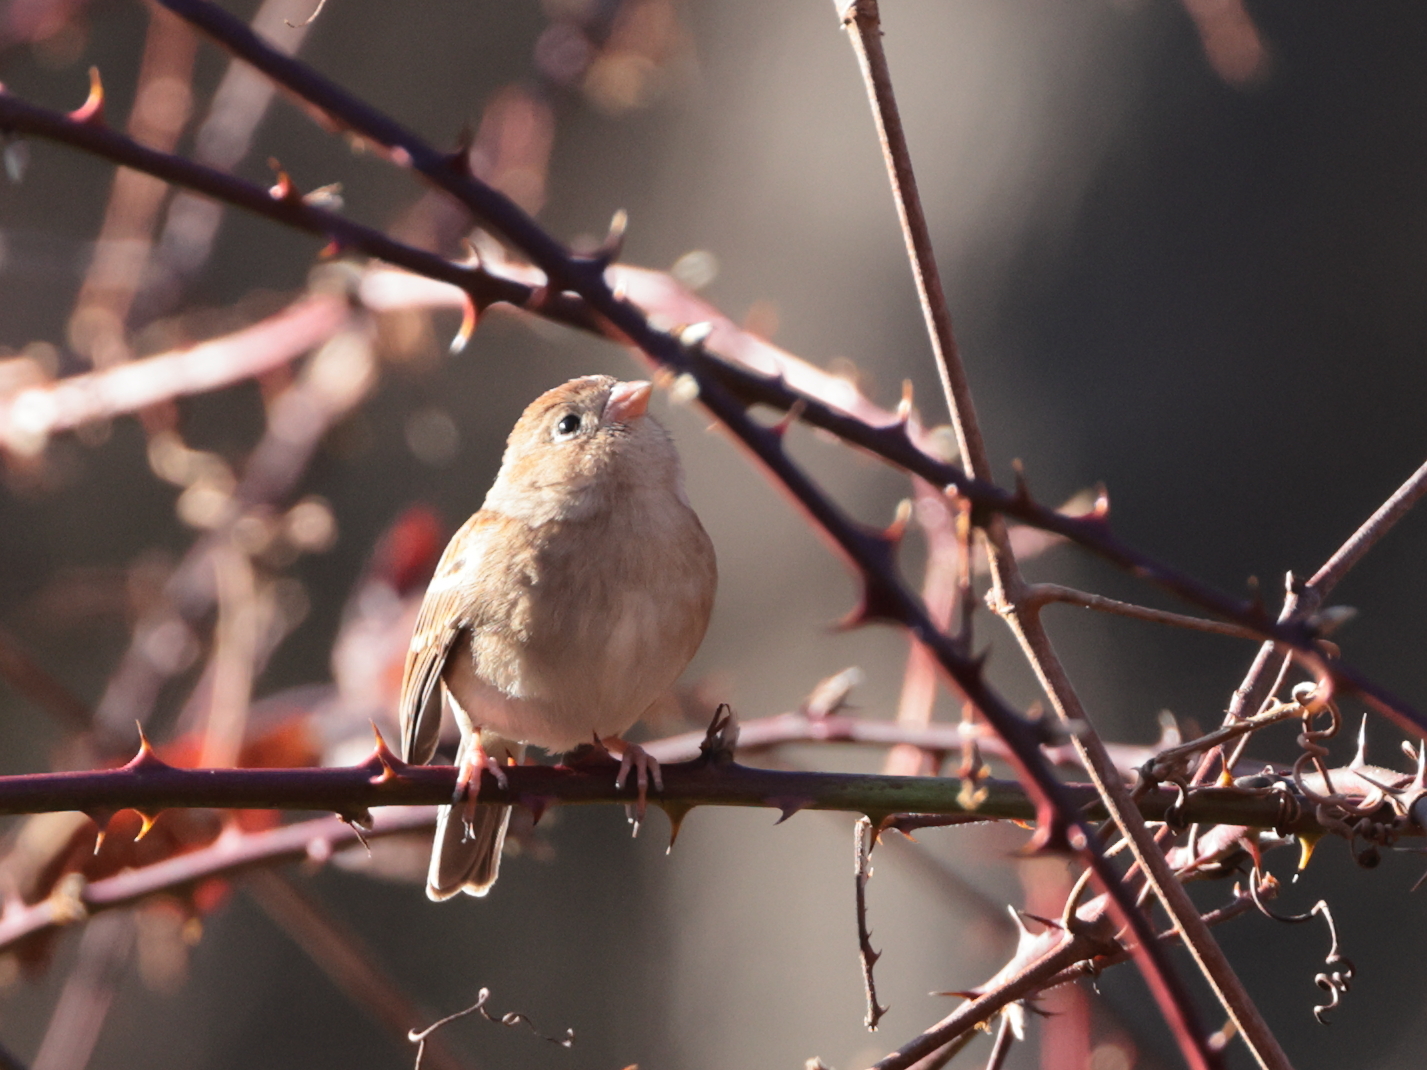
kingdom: Animalia
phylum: Chordata
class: Aves
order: Passeriformes
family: Passerellidae
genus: Spizella
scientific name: Spizella pusilla
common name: Field sparrow
